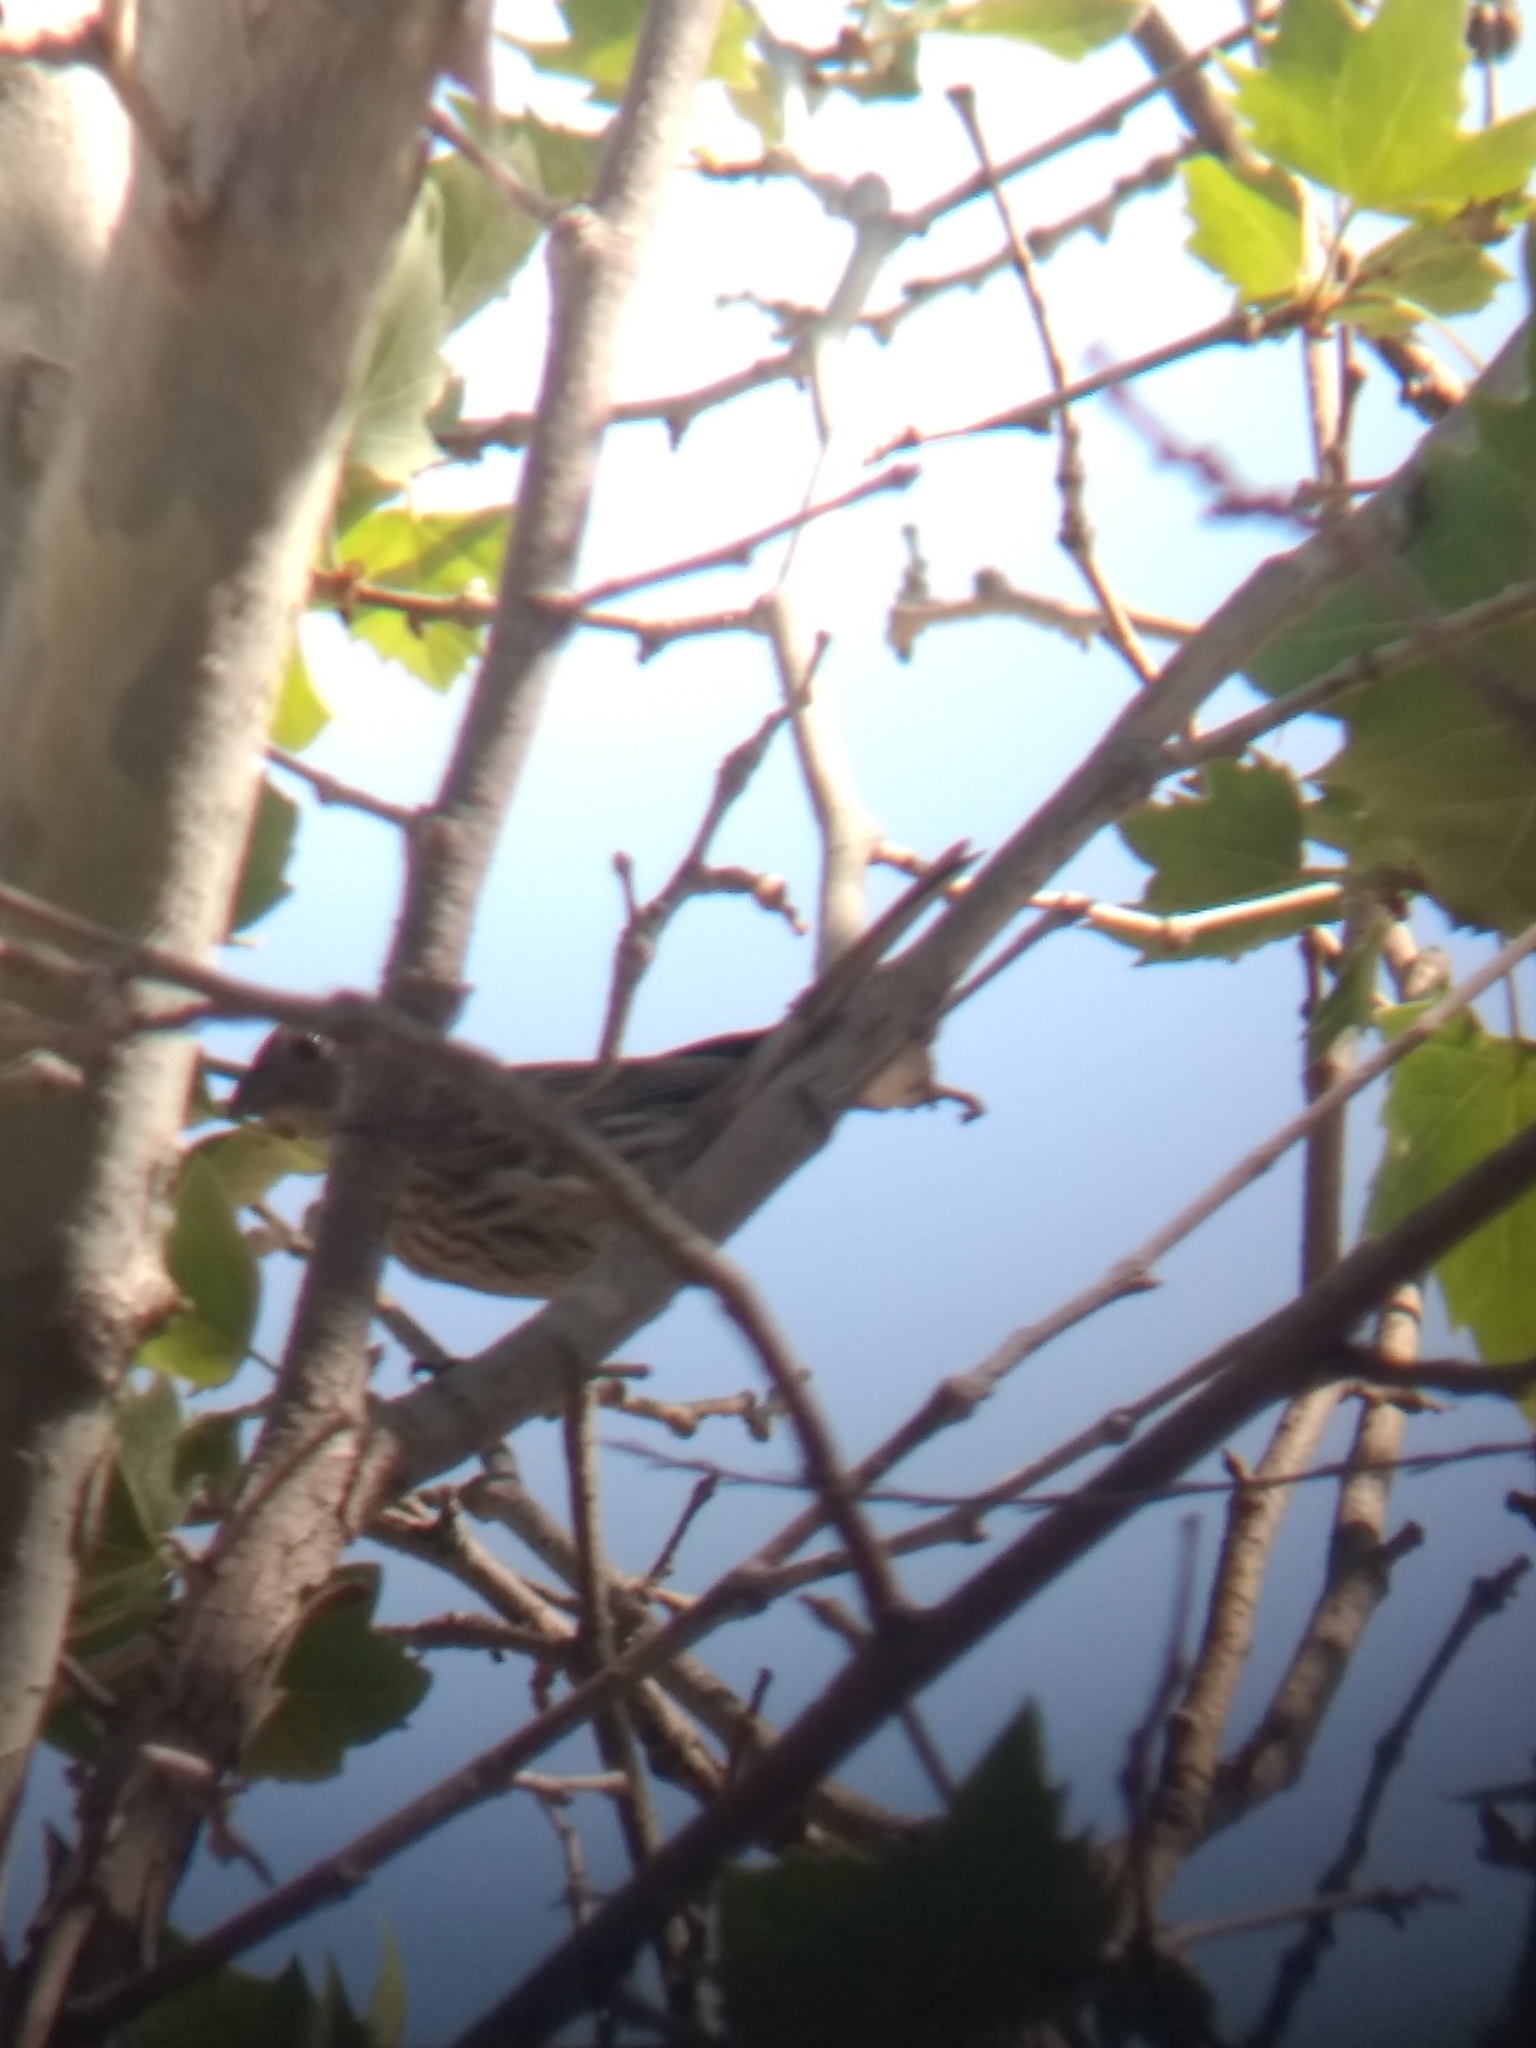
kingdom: Animalia
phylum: Chordata
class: Aves
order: Passeriformes
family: Fringillidae
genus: Haemorhous
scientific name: Haemorhous mexicanus
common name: House finch
